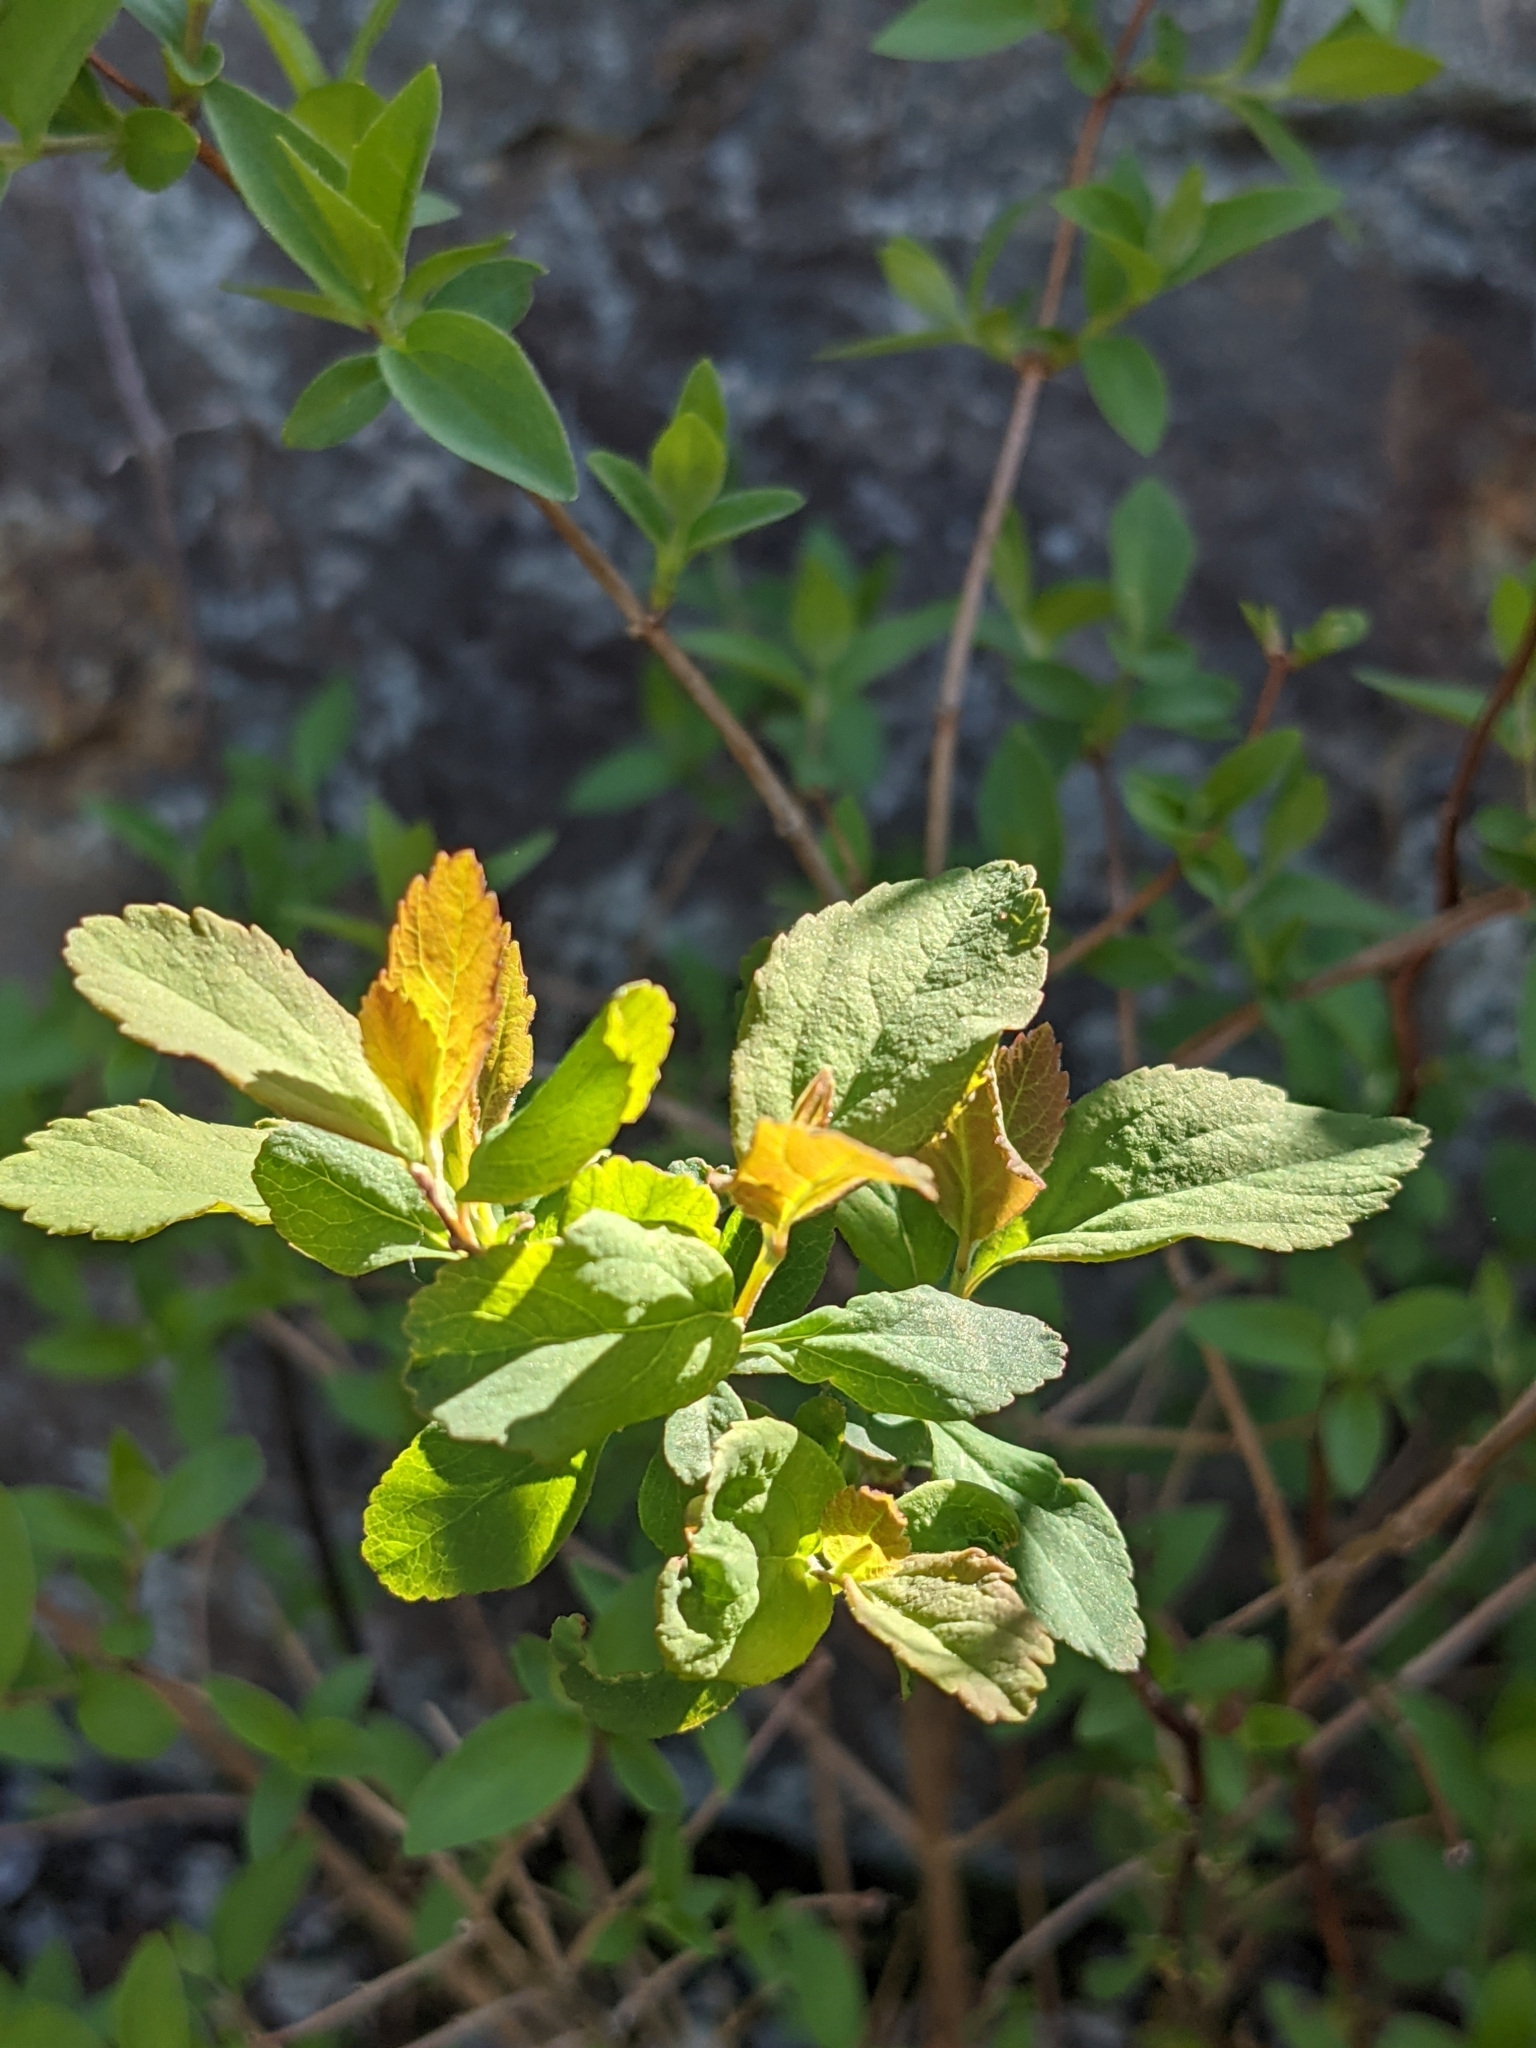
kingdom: Plantae
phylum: Tracheophyta
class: Magnoliopsida
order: Rosales
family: Rosaceae
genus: Spiraea
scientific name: Spiraea douglasii
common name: Steeplebush
